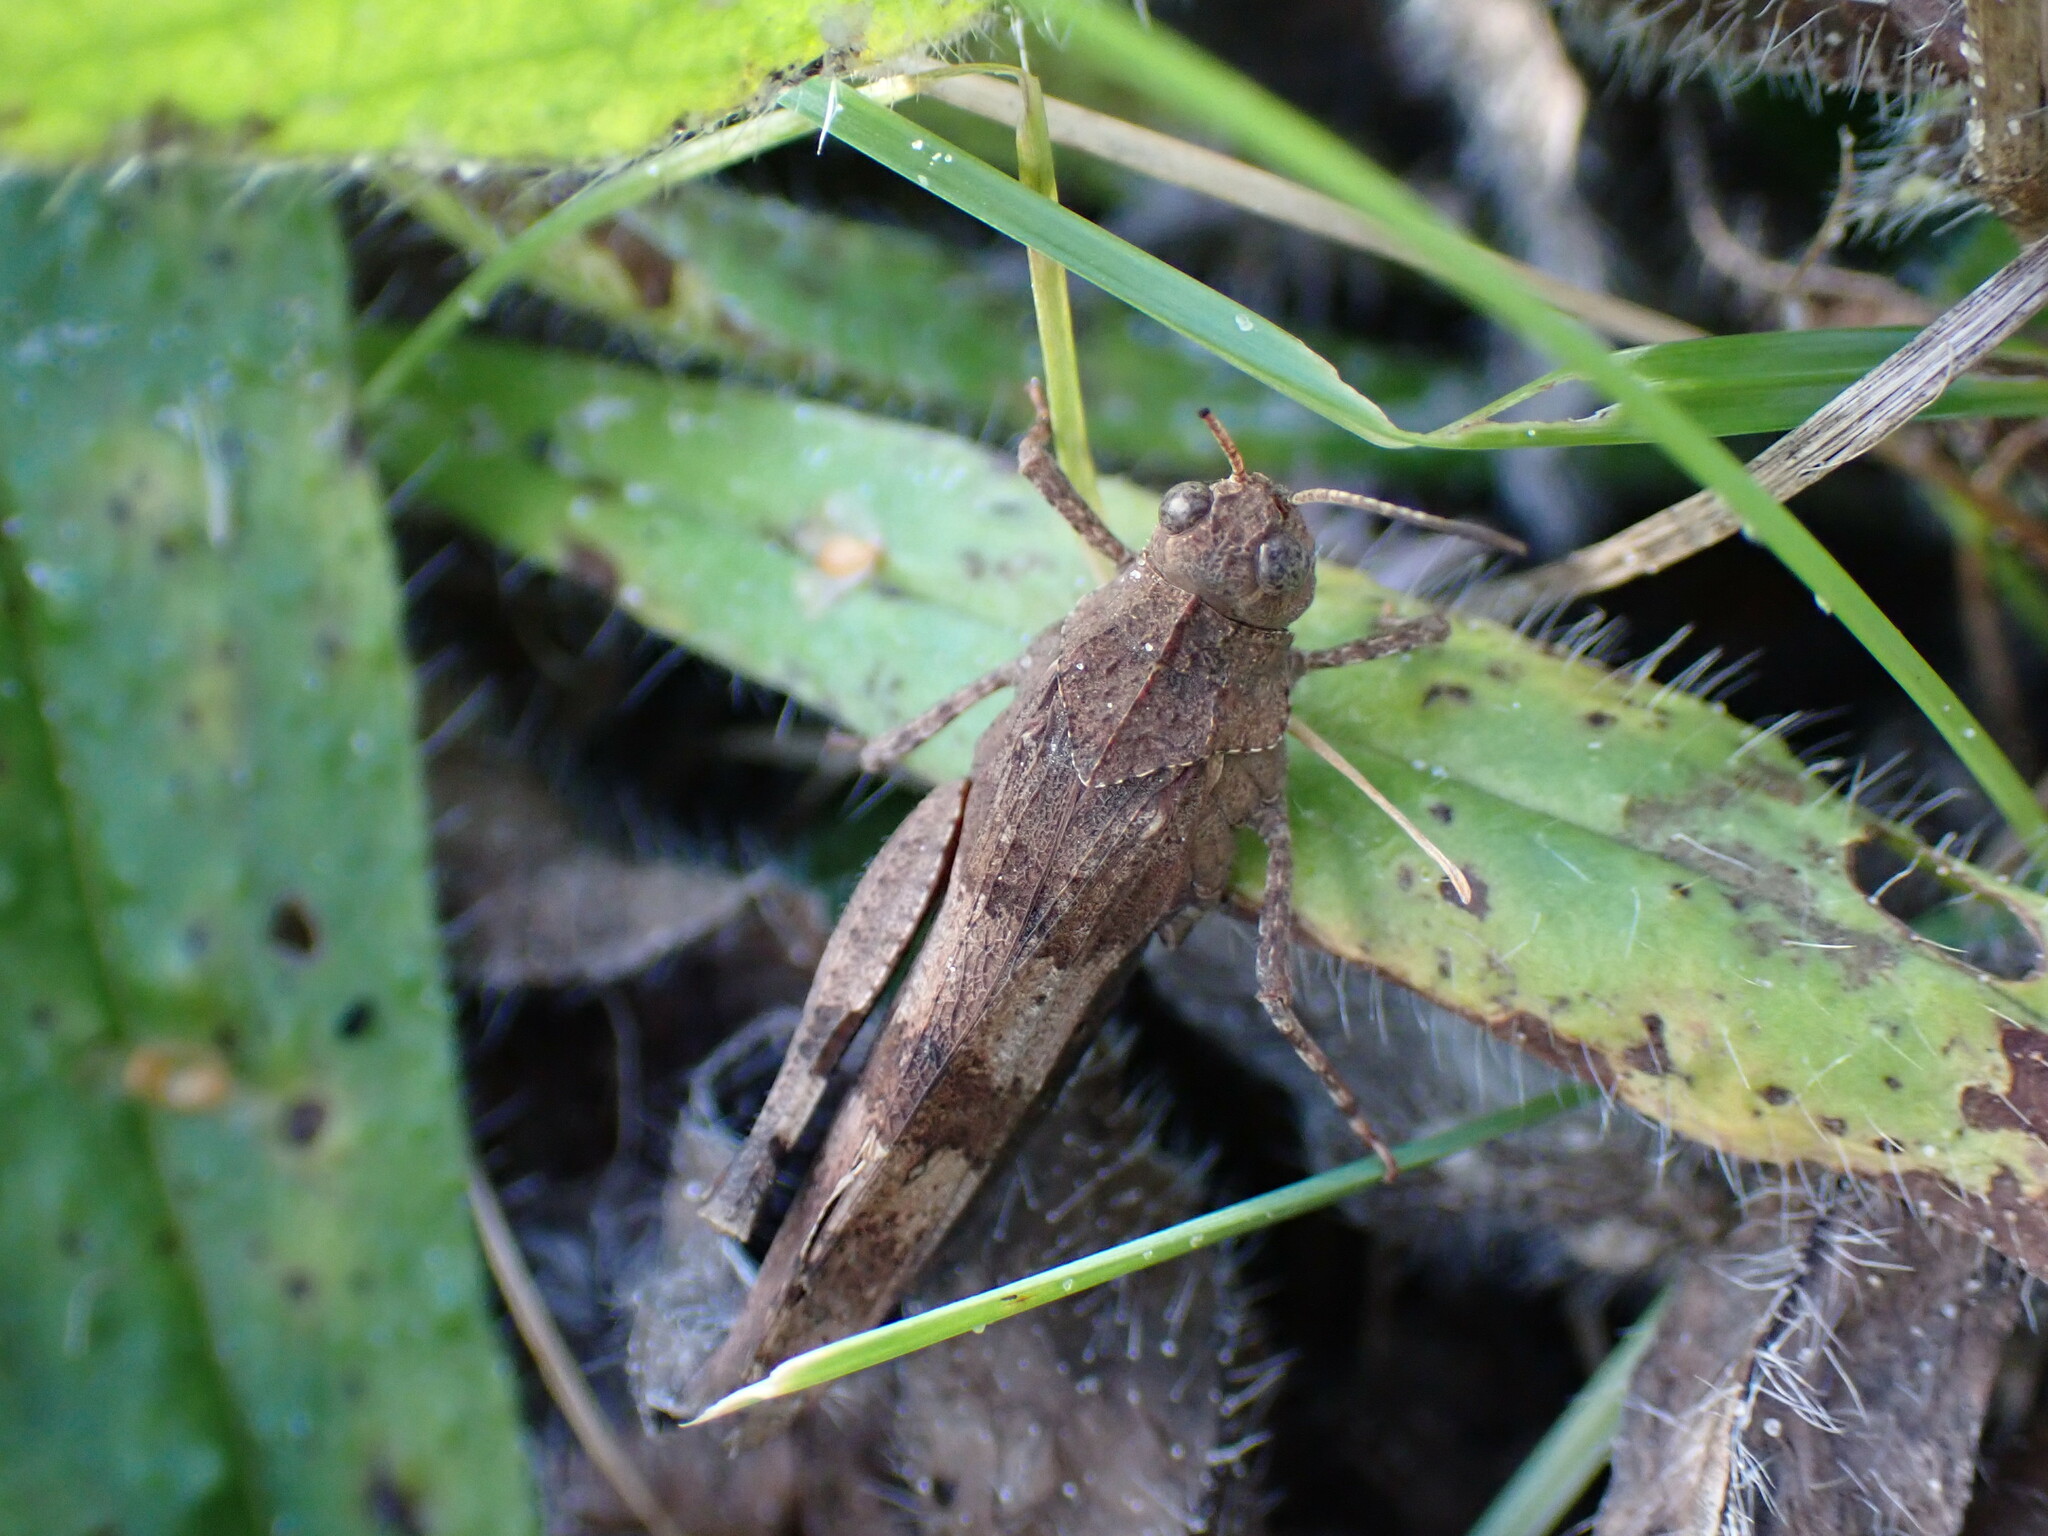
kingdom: Animalia
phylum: Arthropoda
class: Insecta
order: Orthoptera
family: Acrididae
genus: Oedipoda
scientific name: Oedipoda caerulescens
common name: Blue-winged grasshopper
